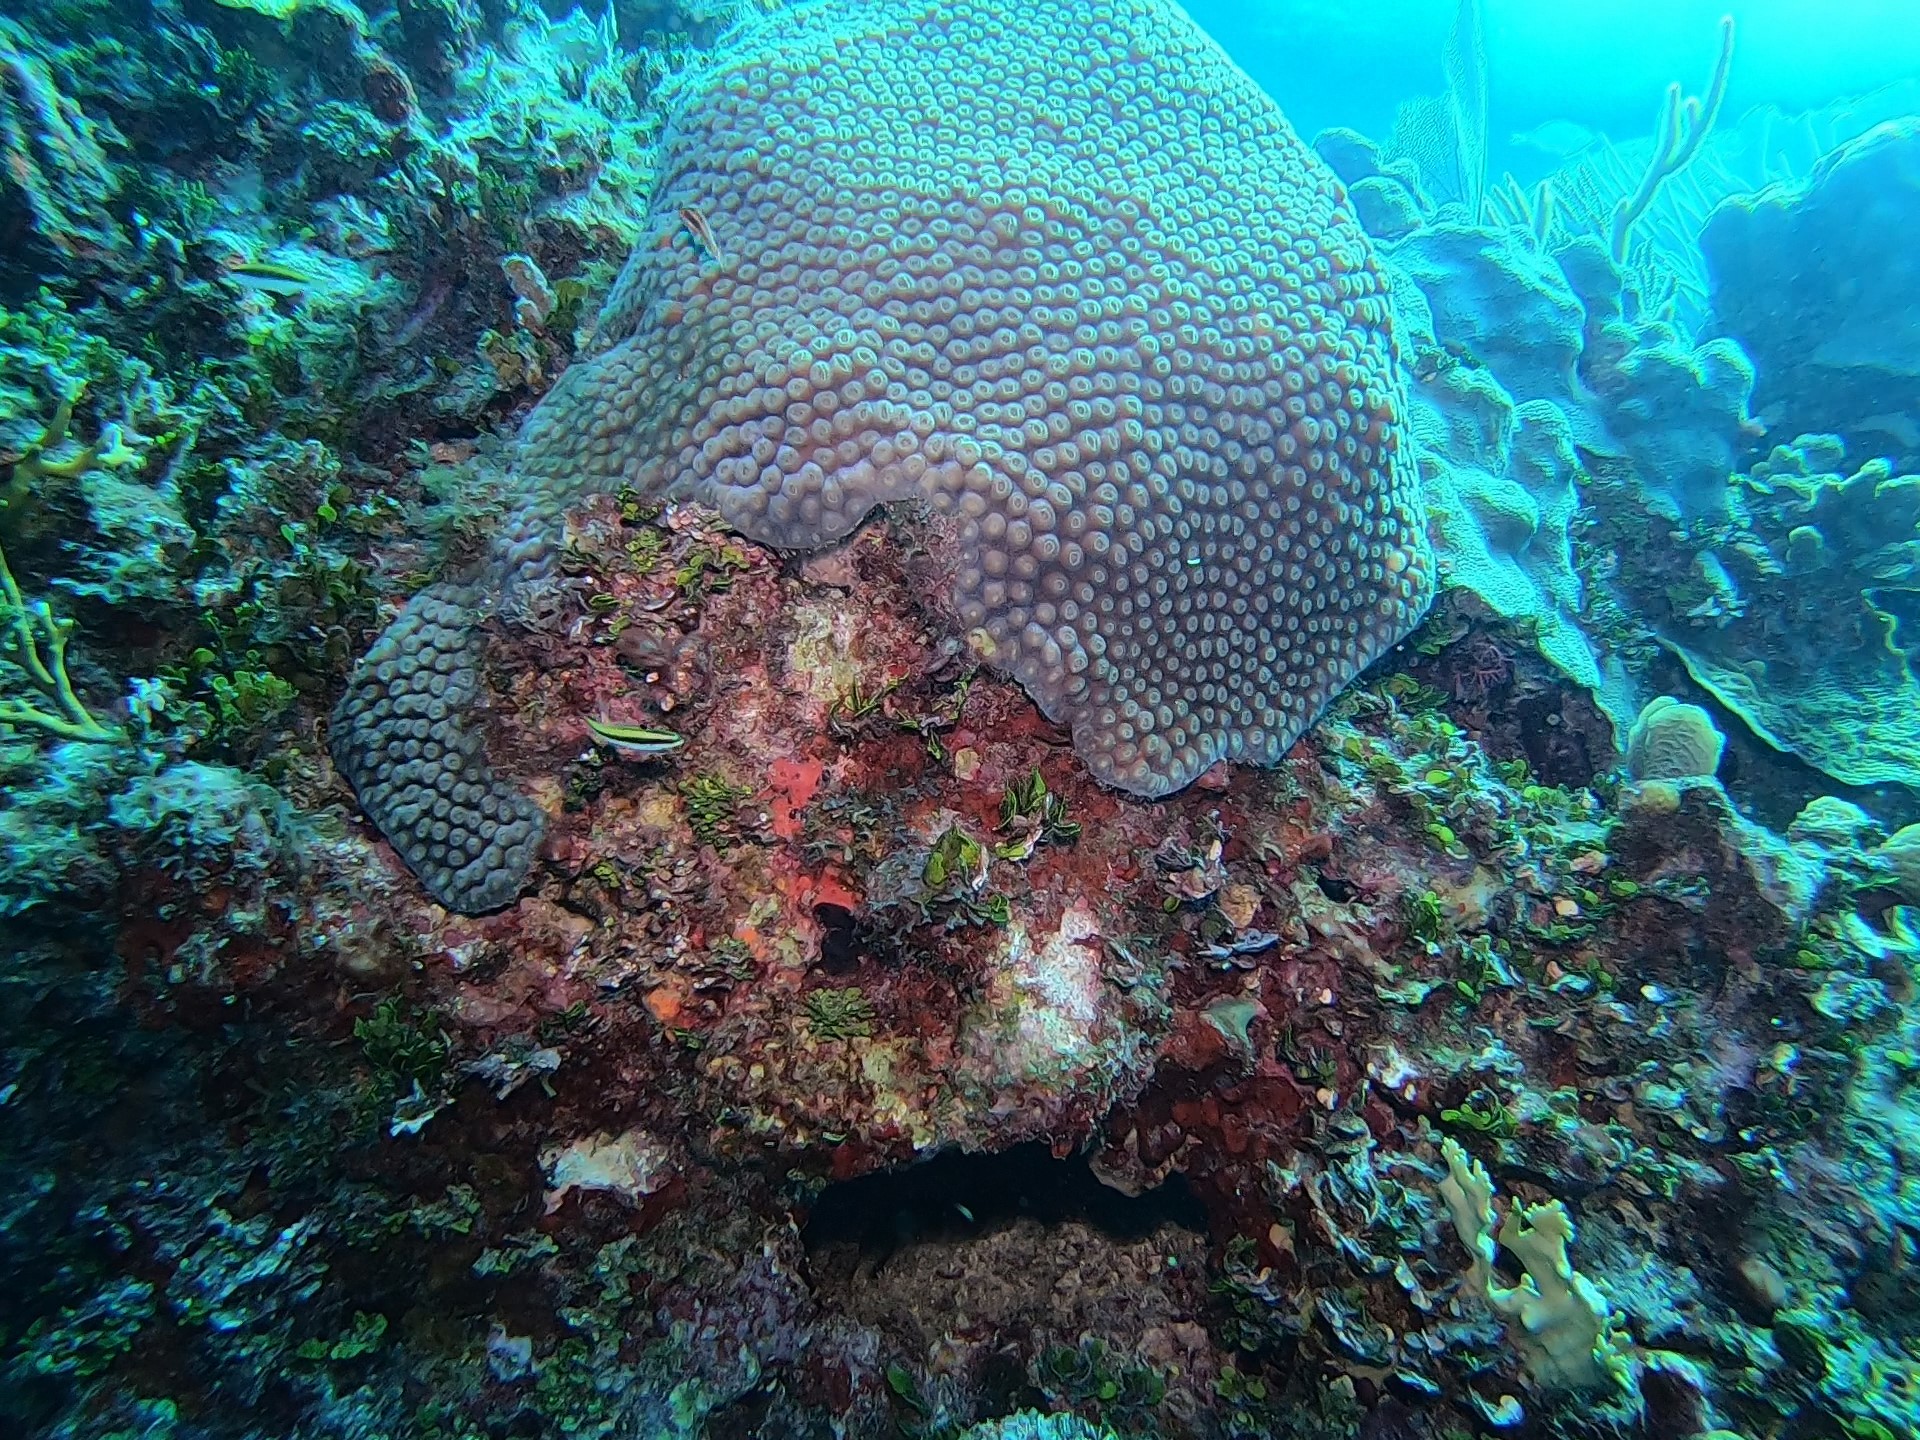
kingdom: Animalia
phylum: Chordata
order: Perciformes
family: Labridae
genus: Thalassoma
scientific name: Thalassoma bifasciatum
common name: Bluehead wrasse
